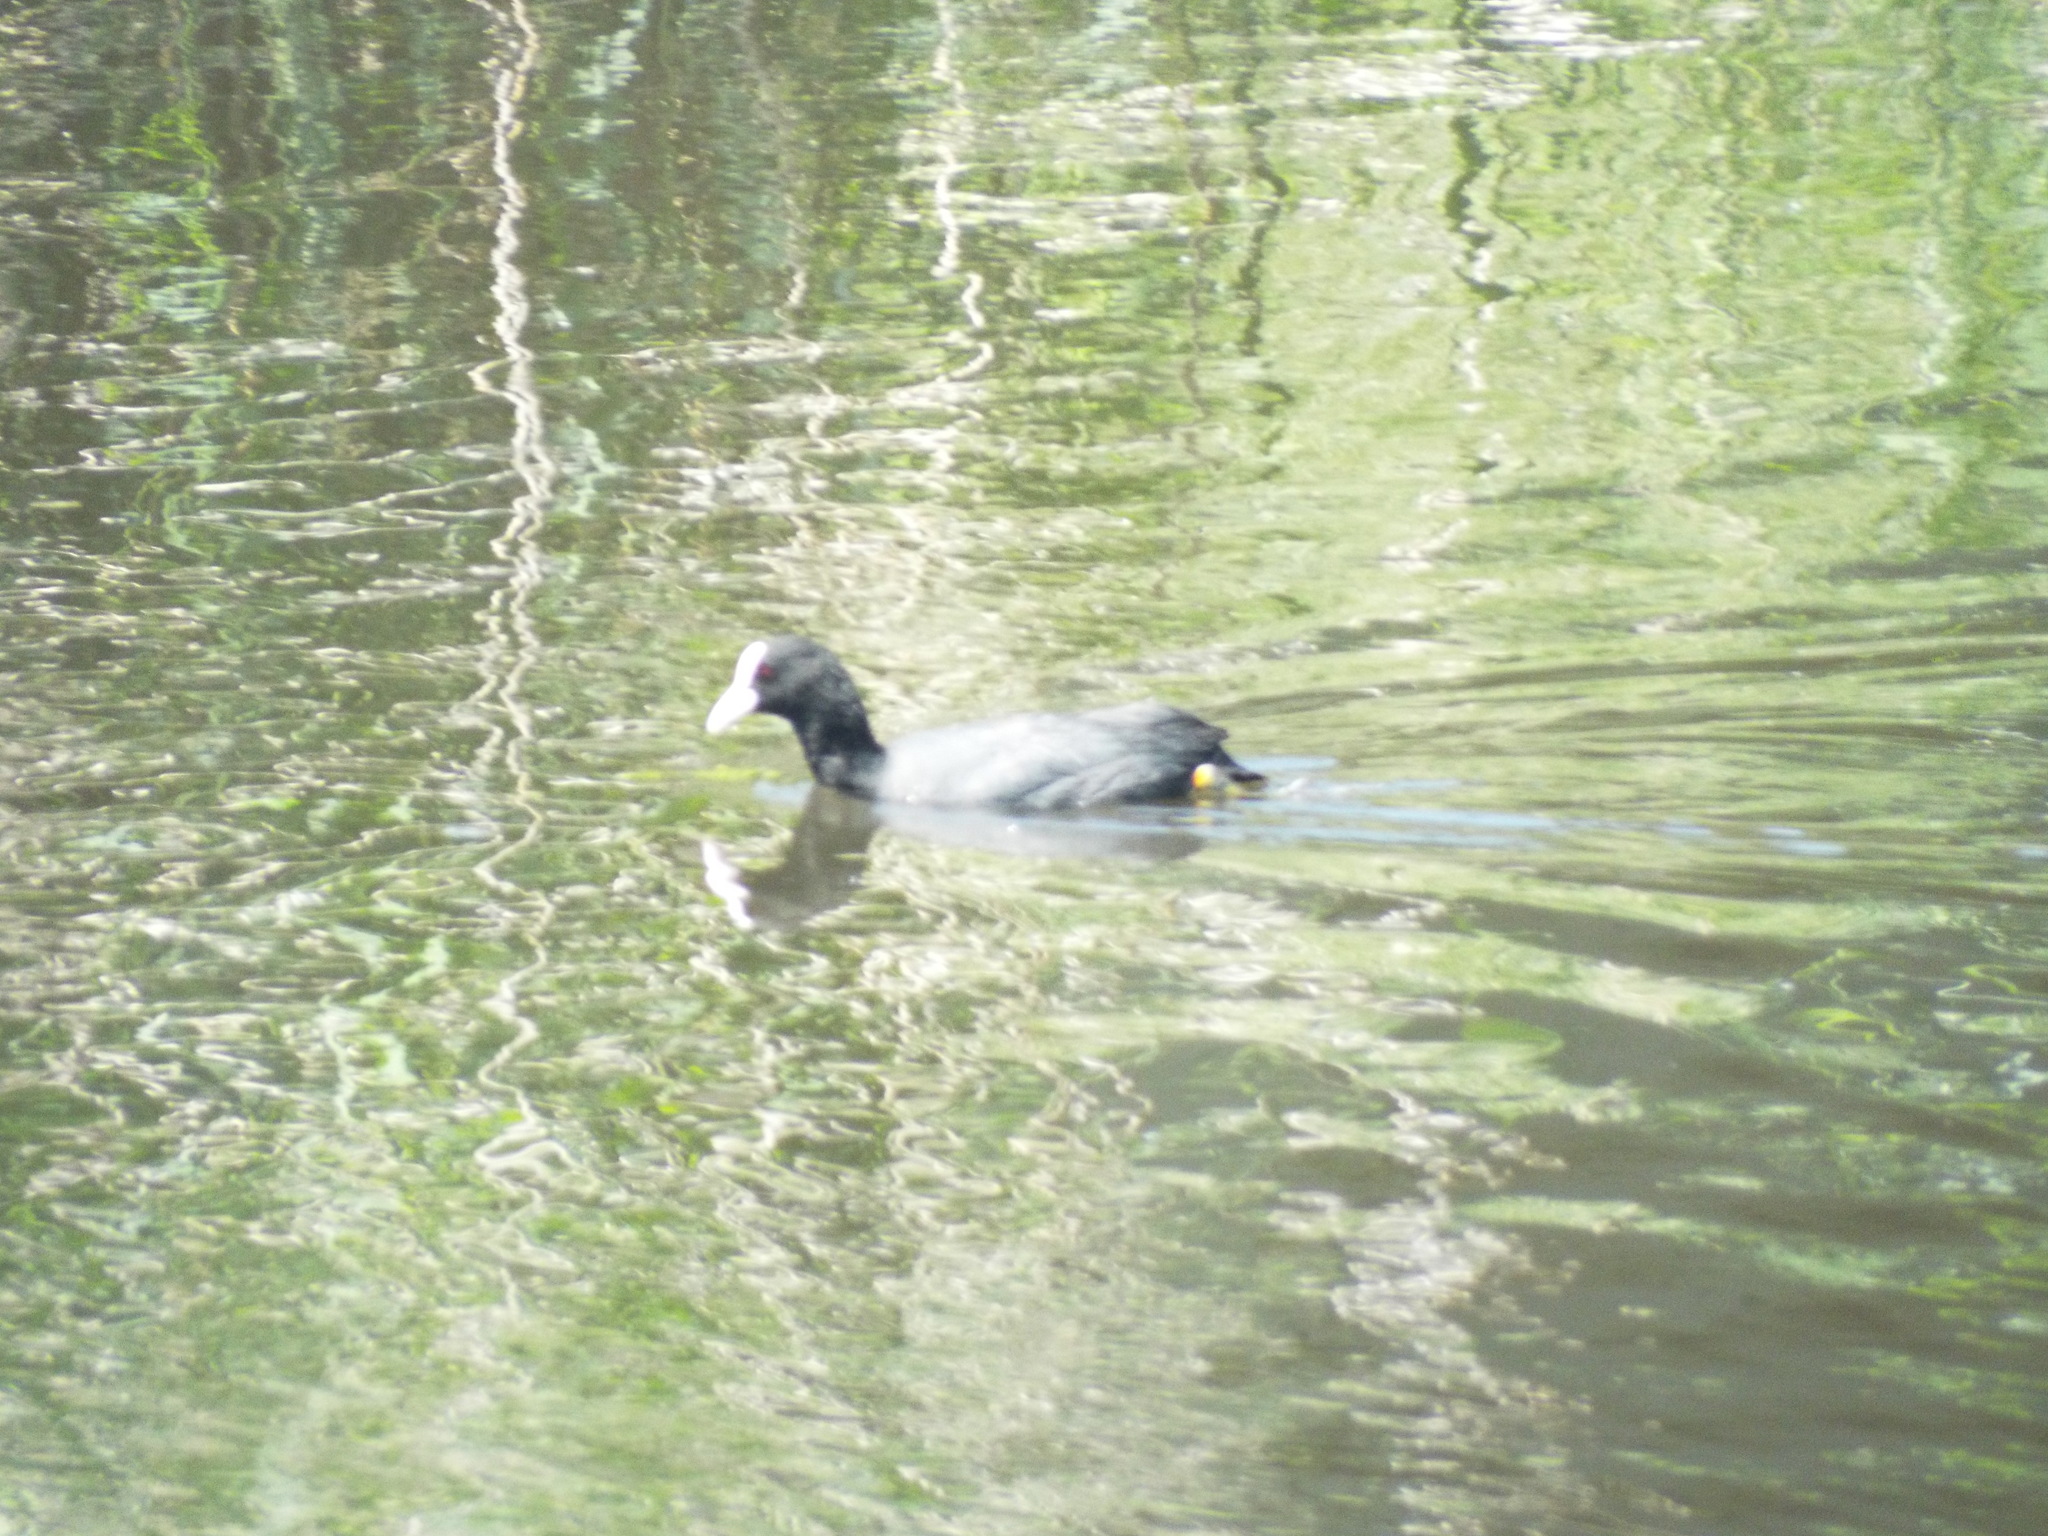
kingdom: Animalia
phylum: Chordata
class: Aves
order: Gruiformes
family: Rallidae
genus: Fulica
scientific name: Fulica atra
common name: Eurasian coot
